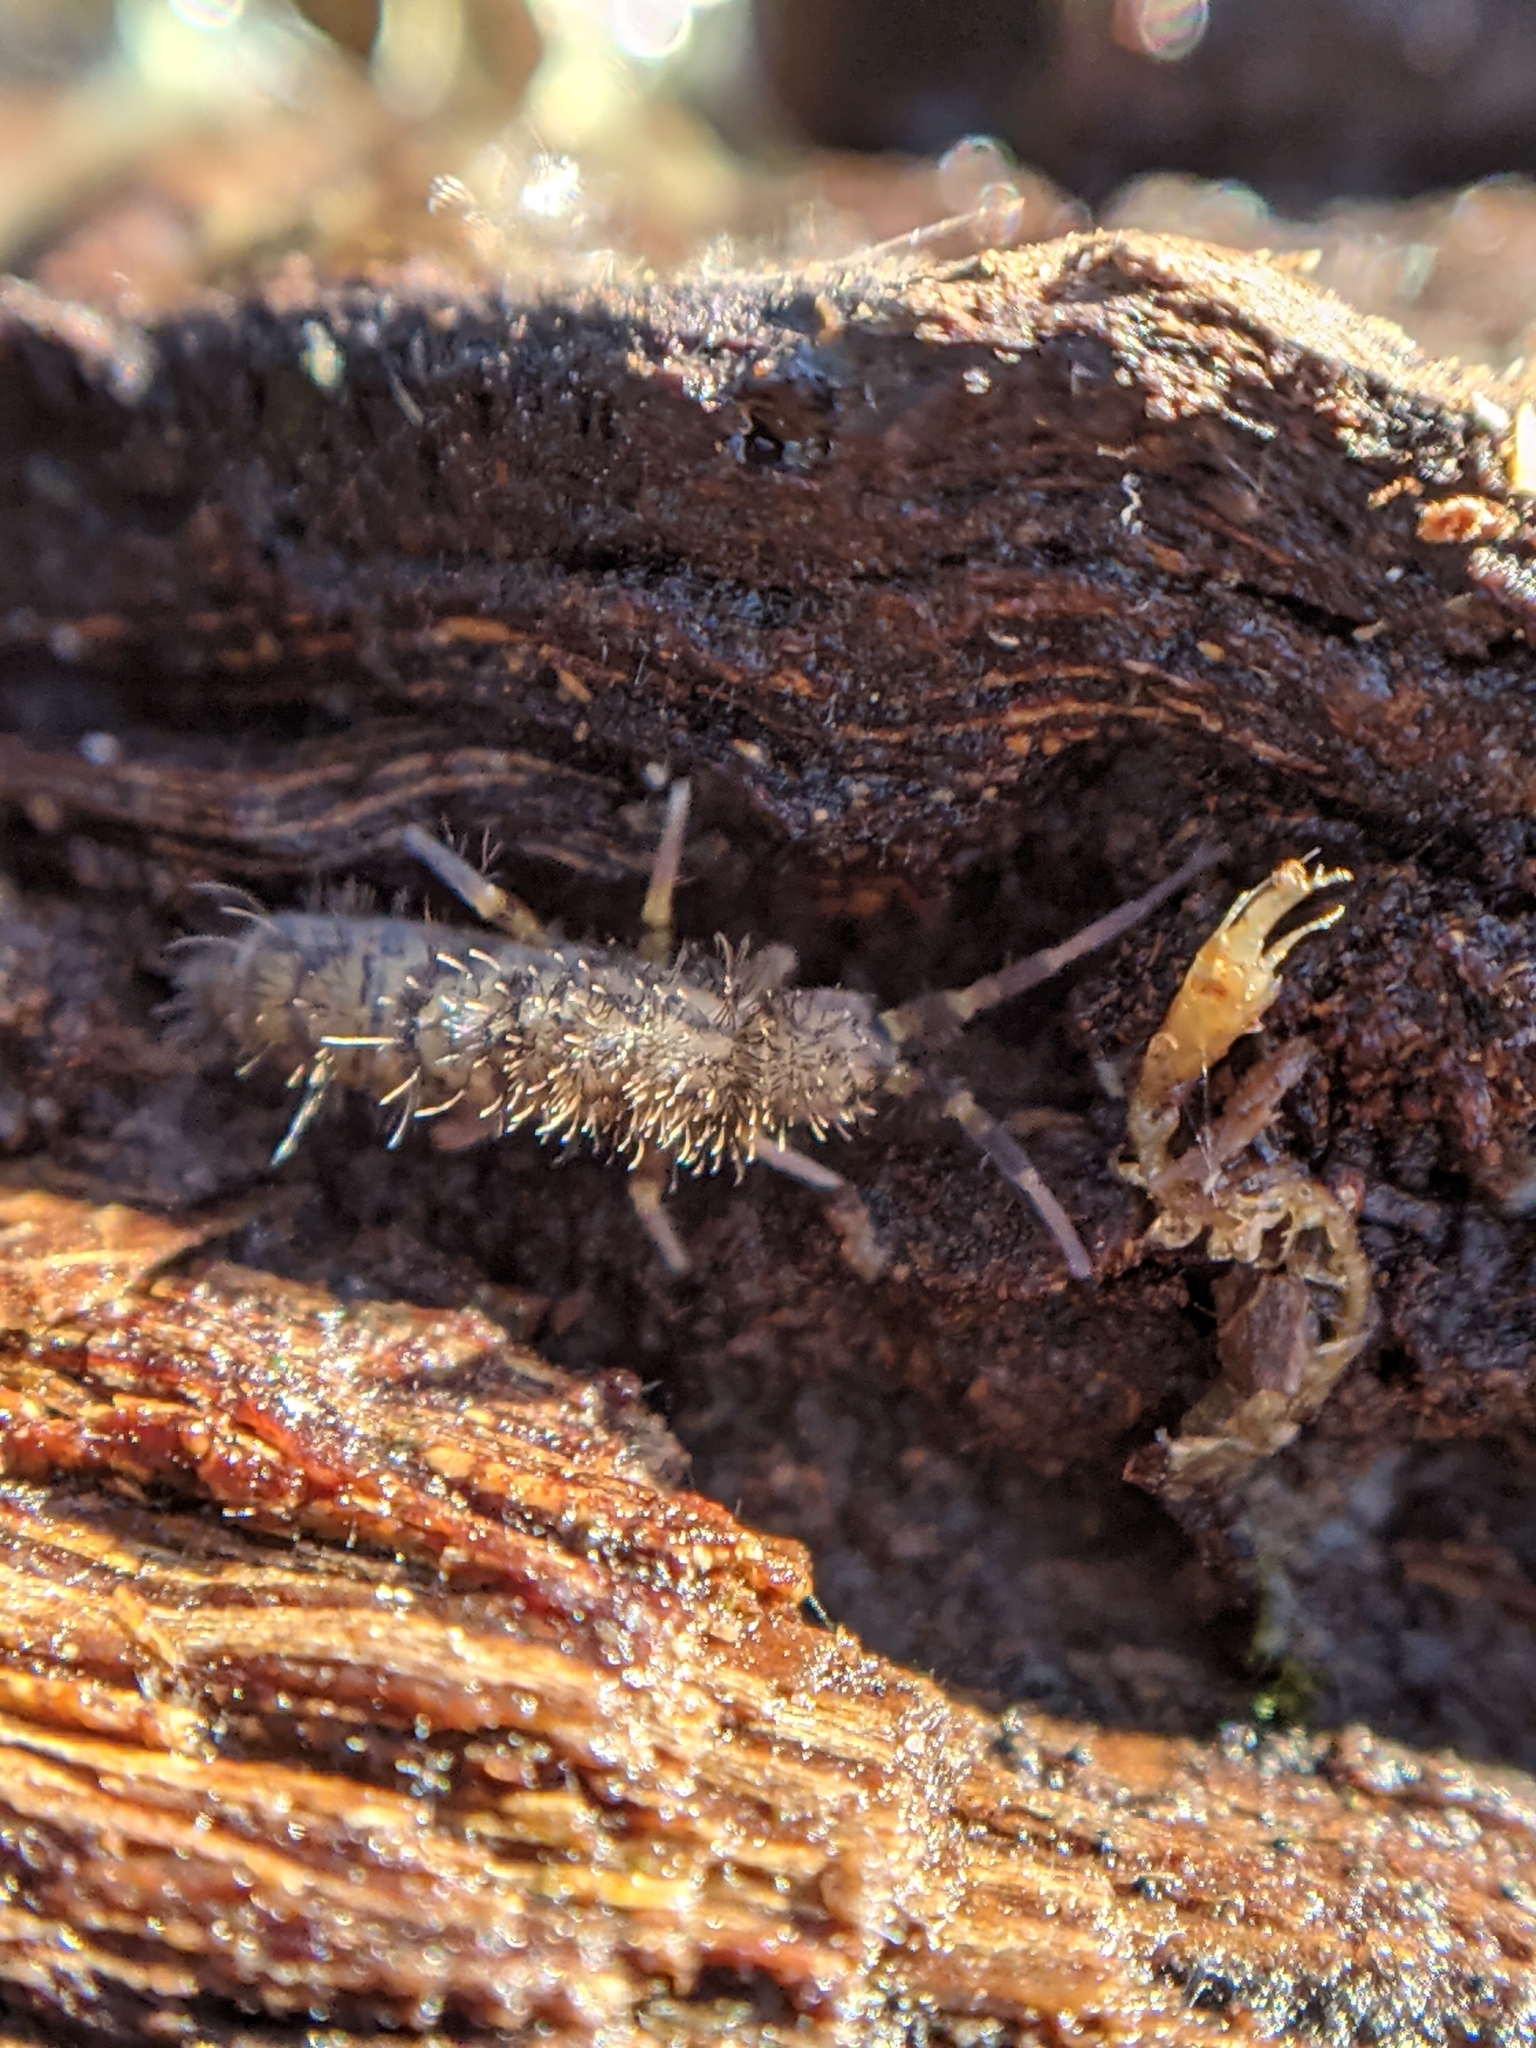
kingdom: Animalia
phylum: Arthropoda
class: Collembola
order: Entomobryomorpha
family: Orchesellidae
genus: Orchesella
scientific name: Orchesella villosa
